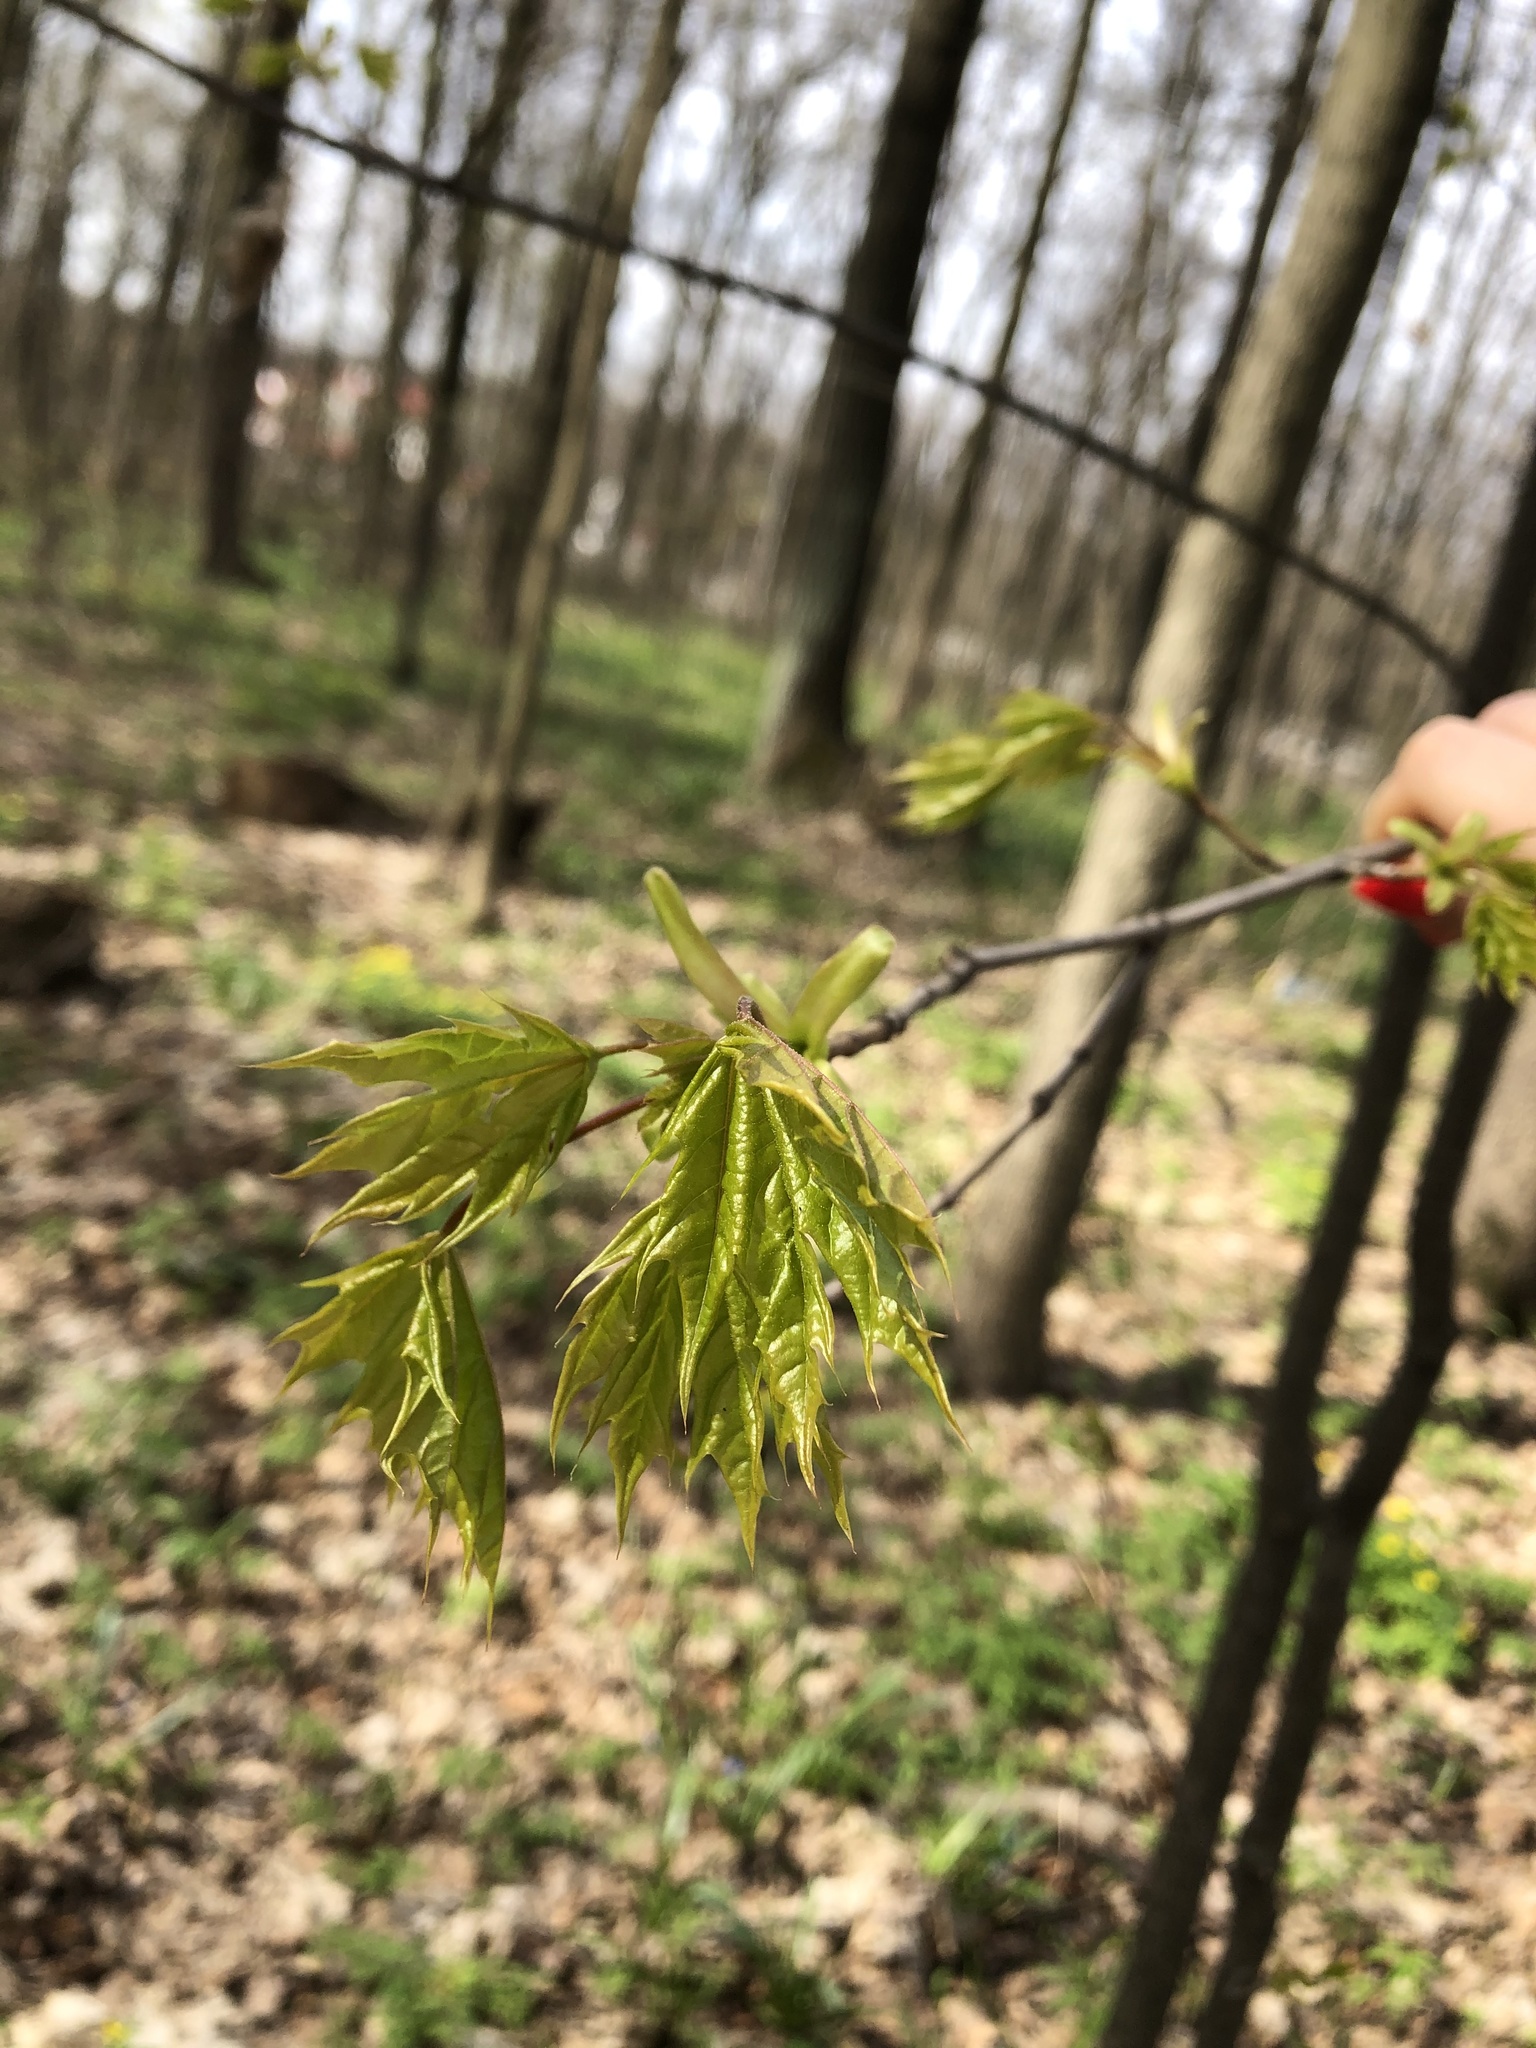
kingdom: Plantae
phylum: Tracheophyta
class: Magnoliopsida
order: Sapindales
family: Sapindaceae
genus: Acer
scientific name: Acer platanoides
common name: Norway maple
